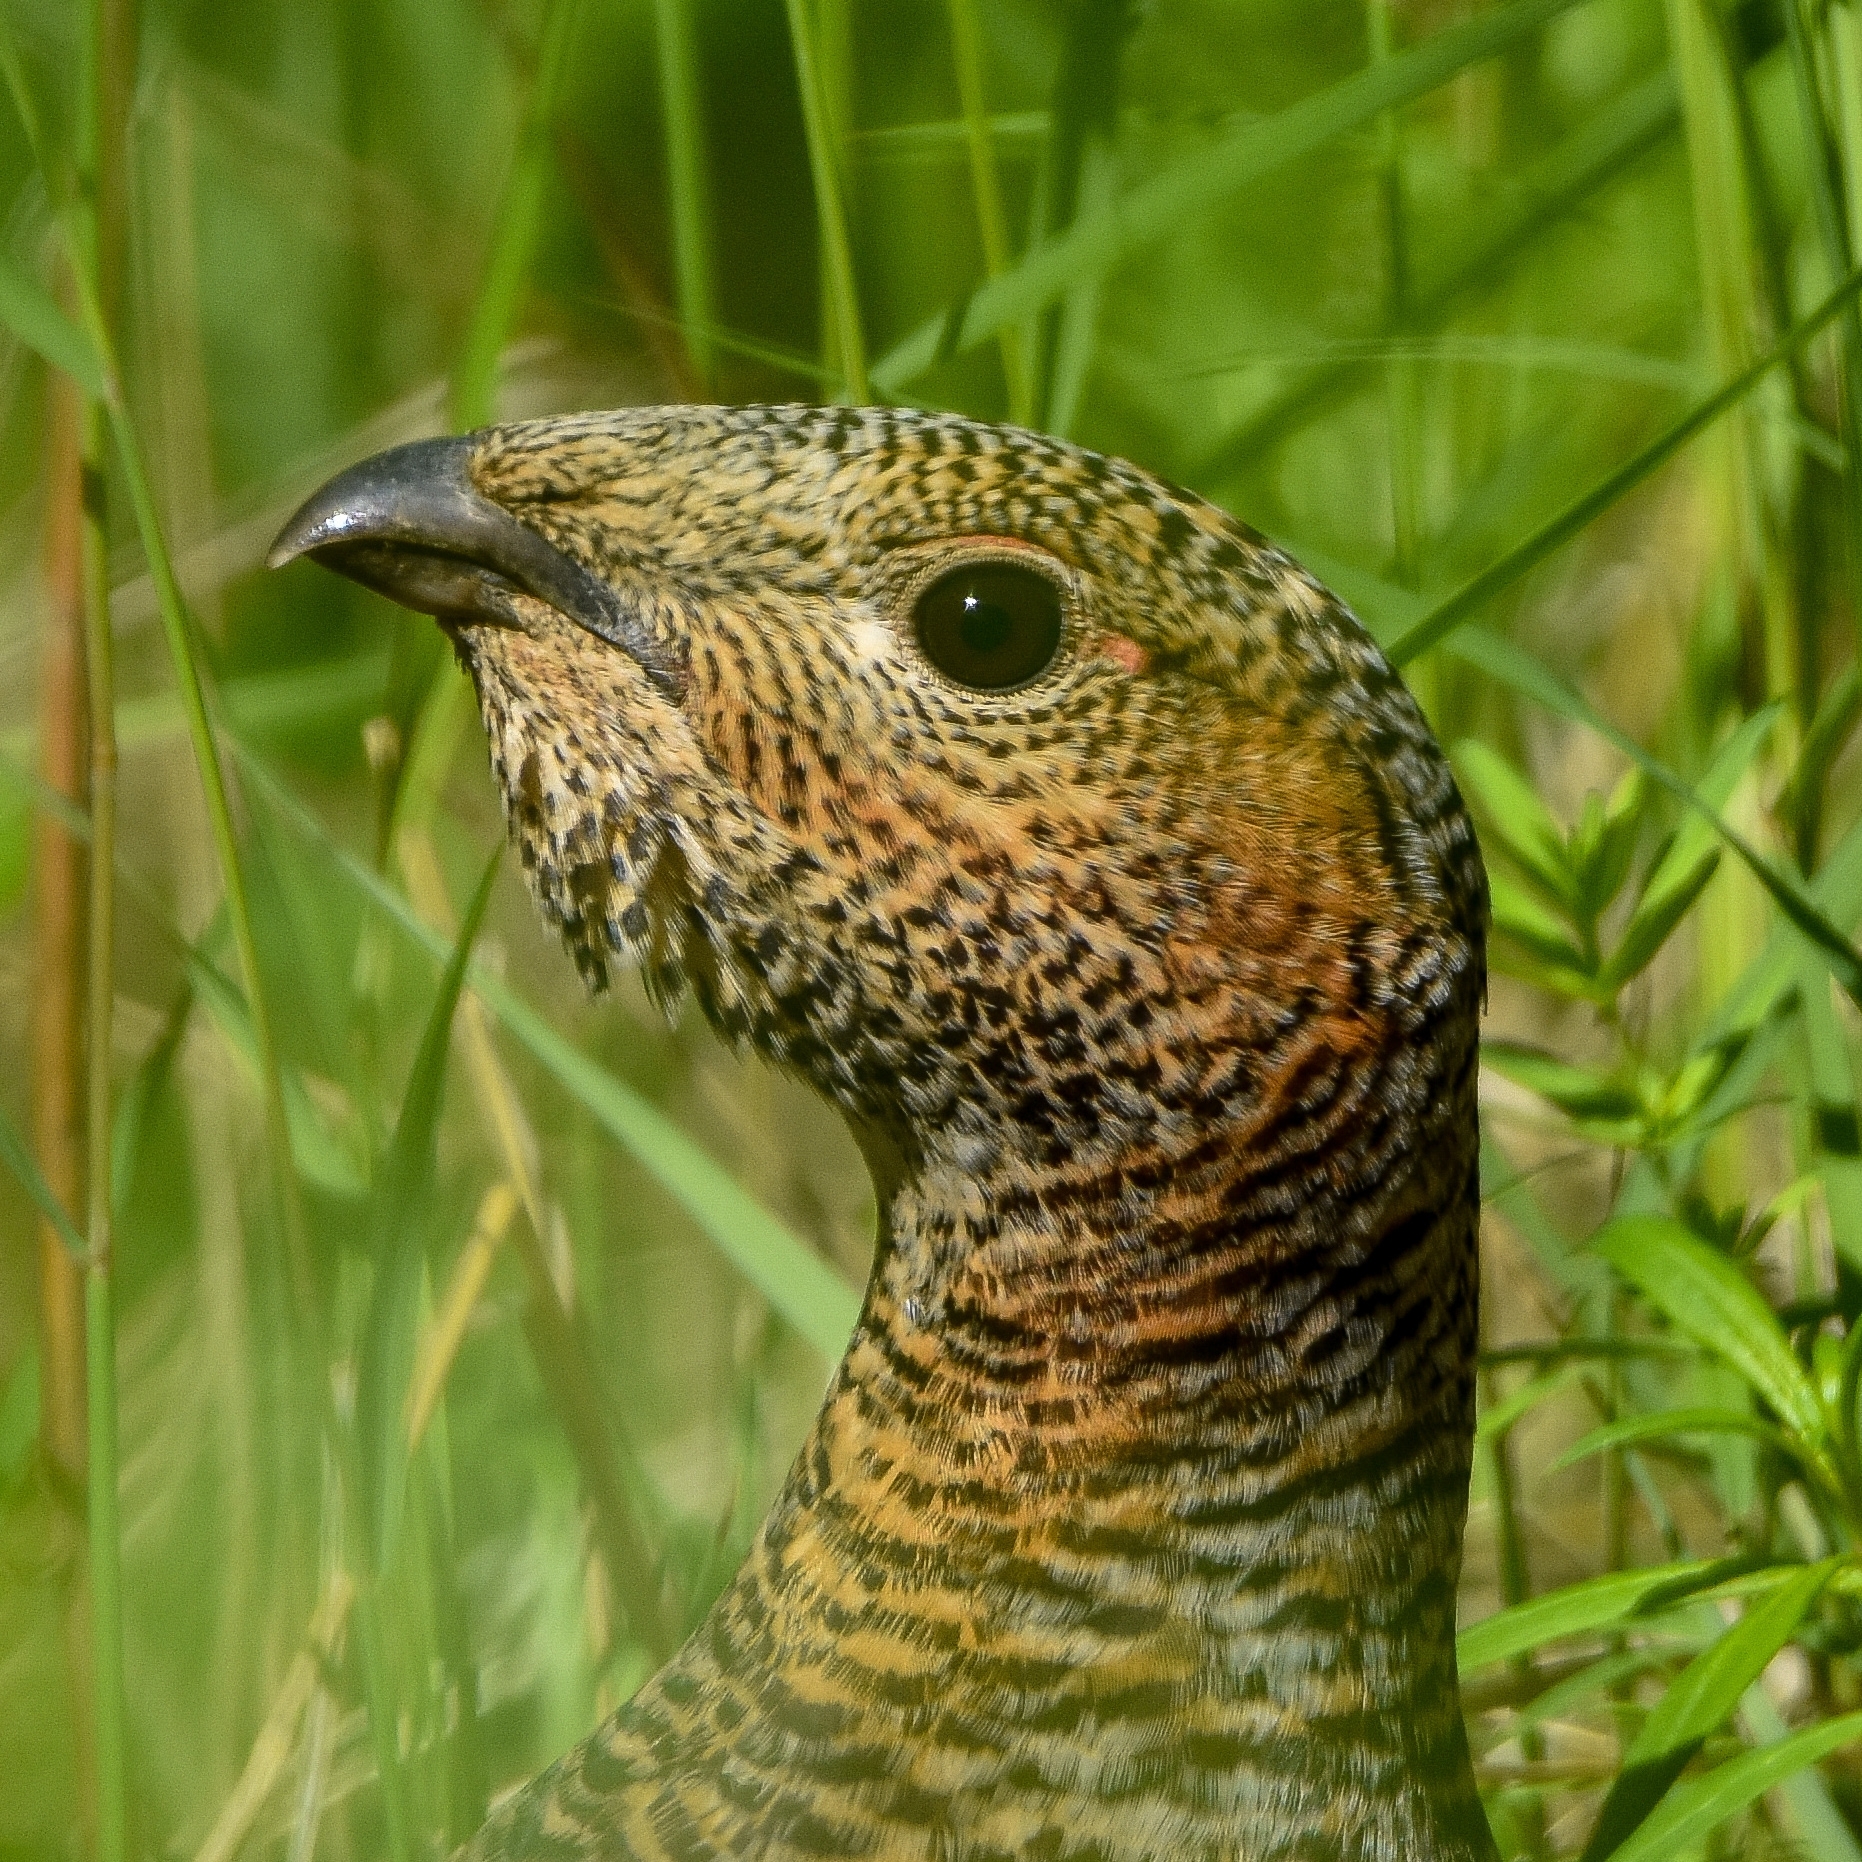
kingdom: Animalia
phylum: Chordata
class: Aves
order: Galliformes
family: Phasianidae
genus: Tetrao
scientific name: Tetrao urogalloides
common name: Black-billed capercaillie
